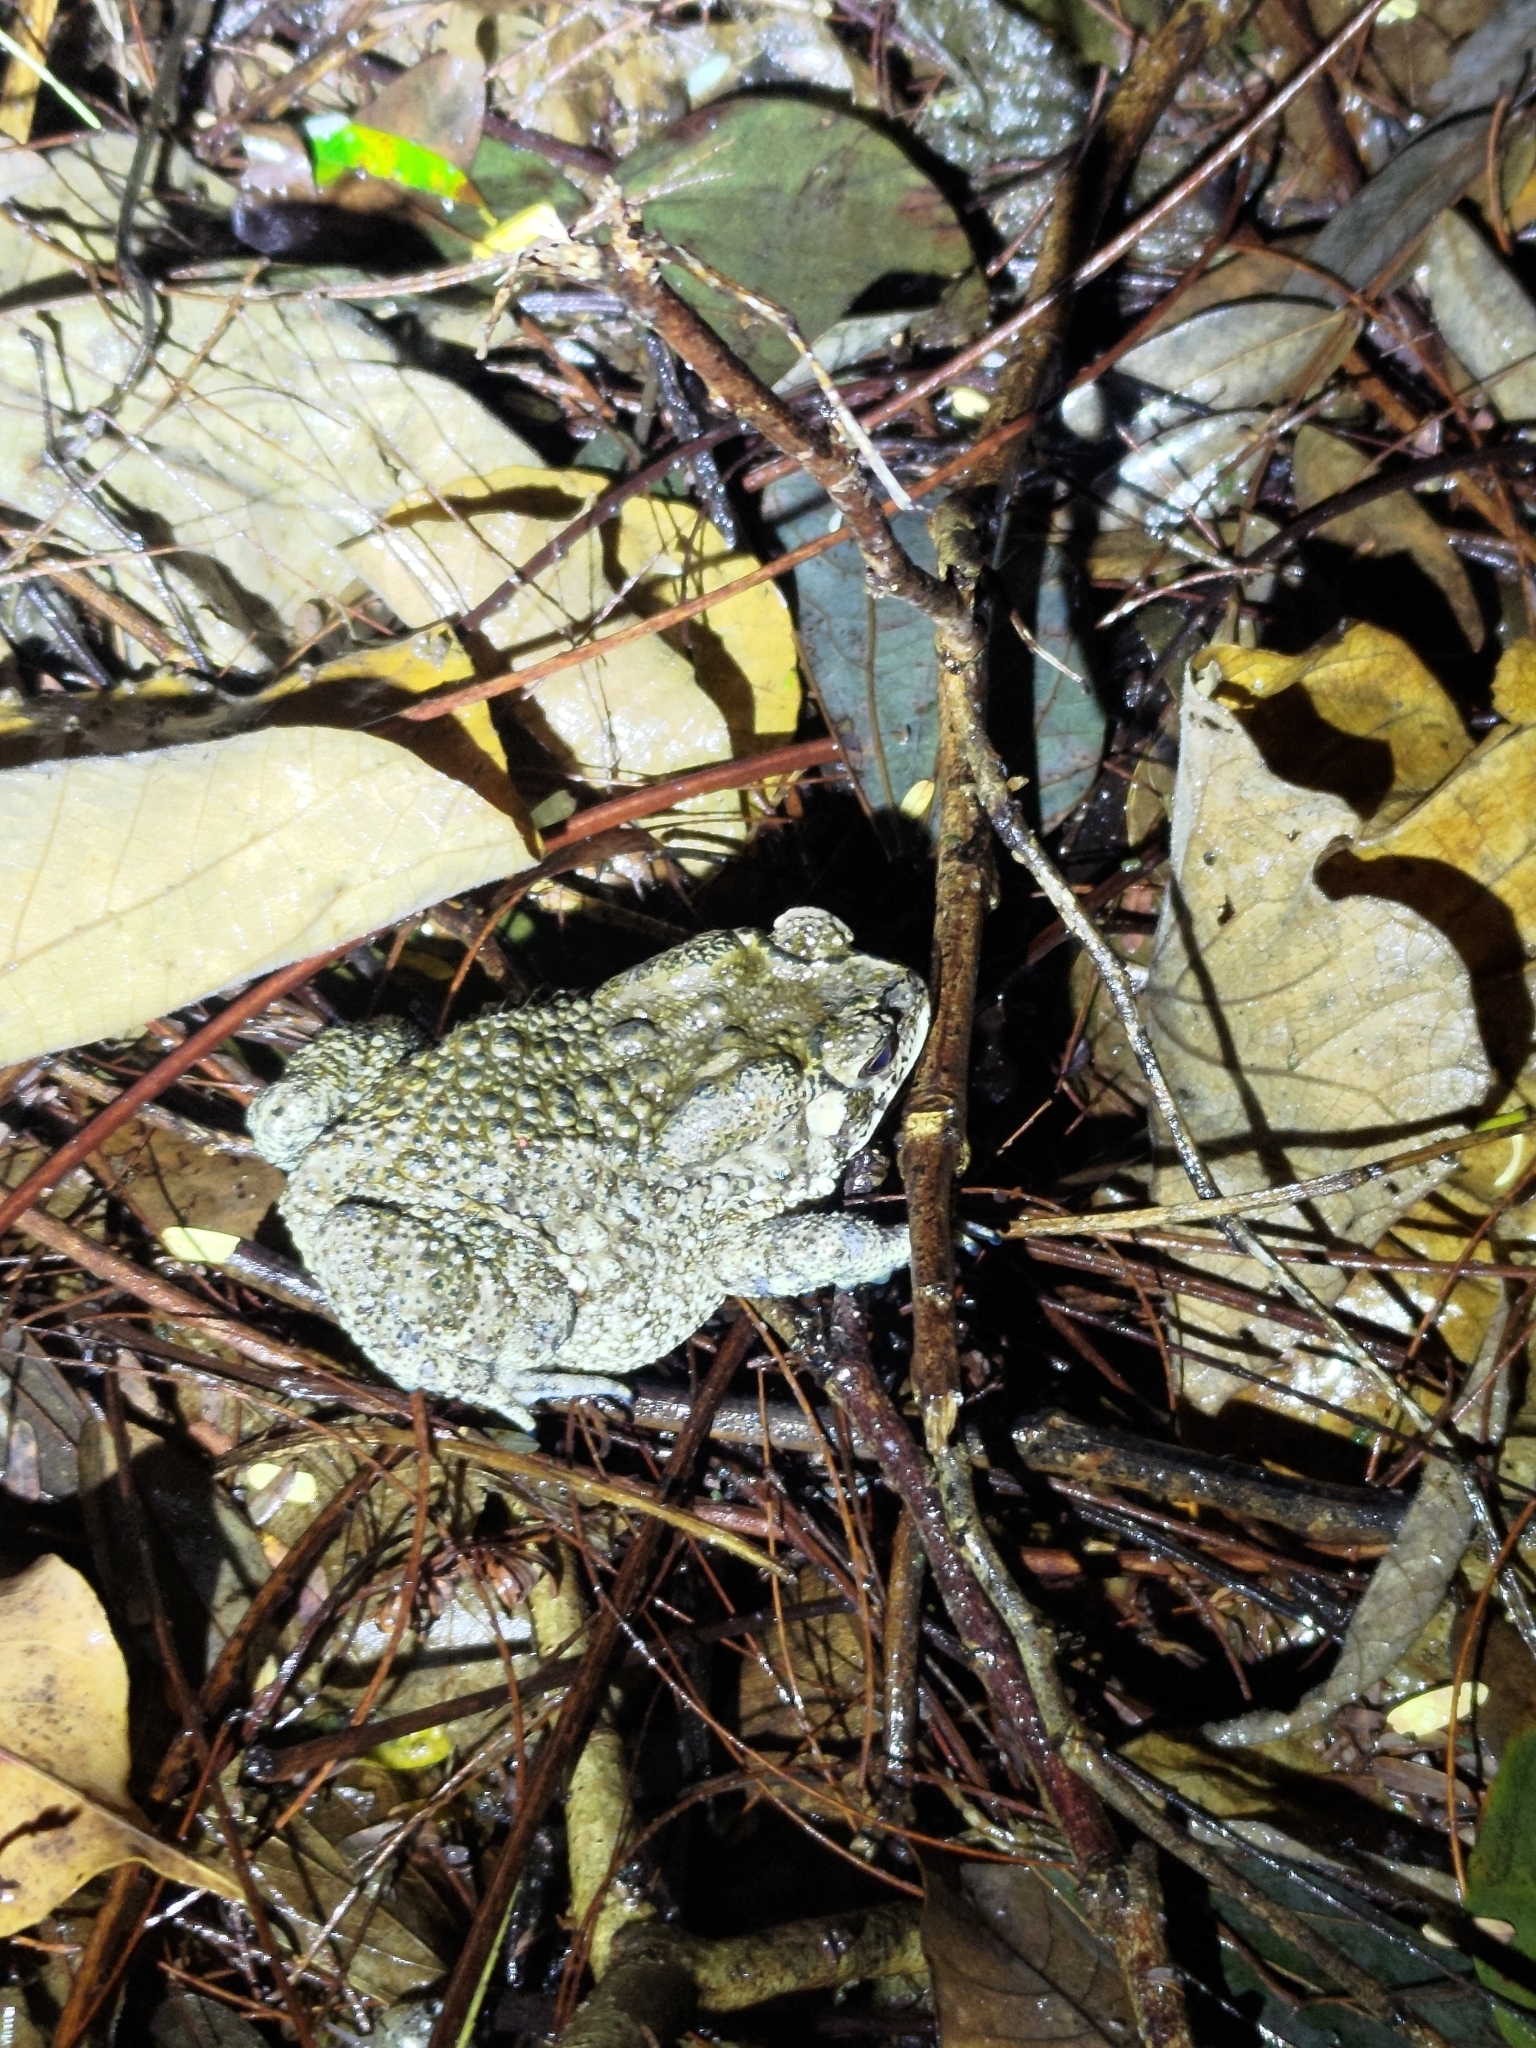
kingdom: Animalia
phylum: Chordata
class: Amphibia
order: Anura
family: Bufonidae
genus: Duttaphrynus
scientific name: Duttaphrynus melanostictus
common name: Common sunda toad
